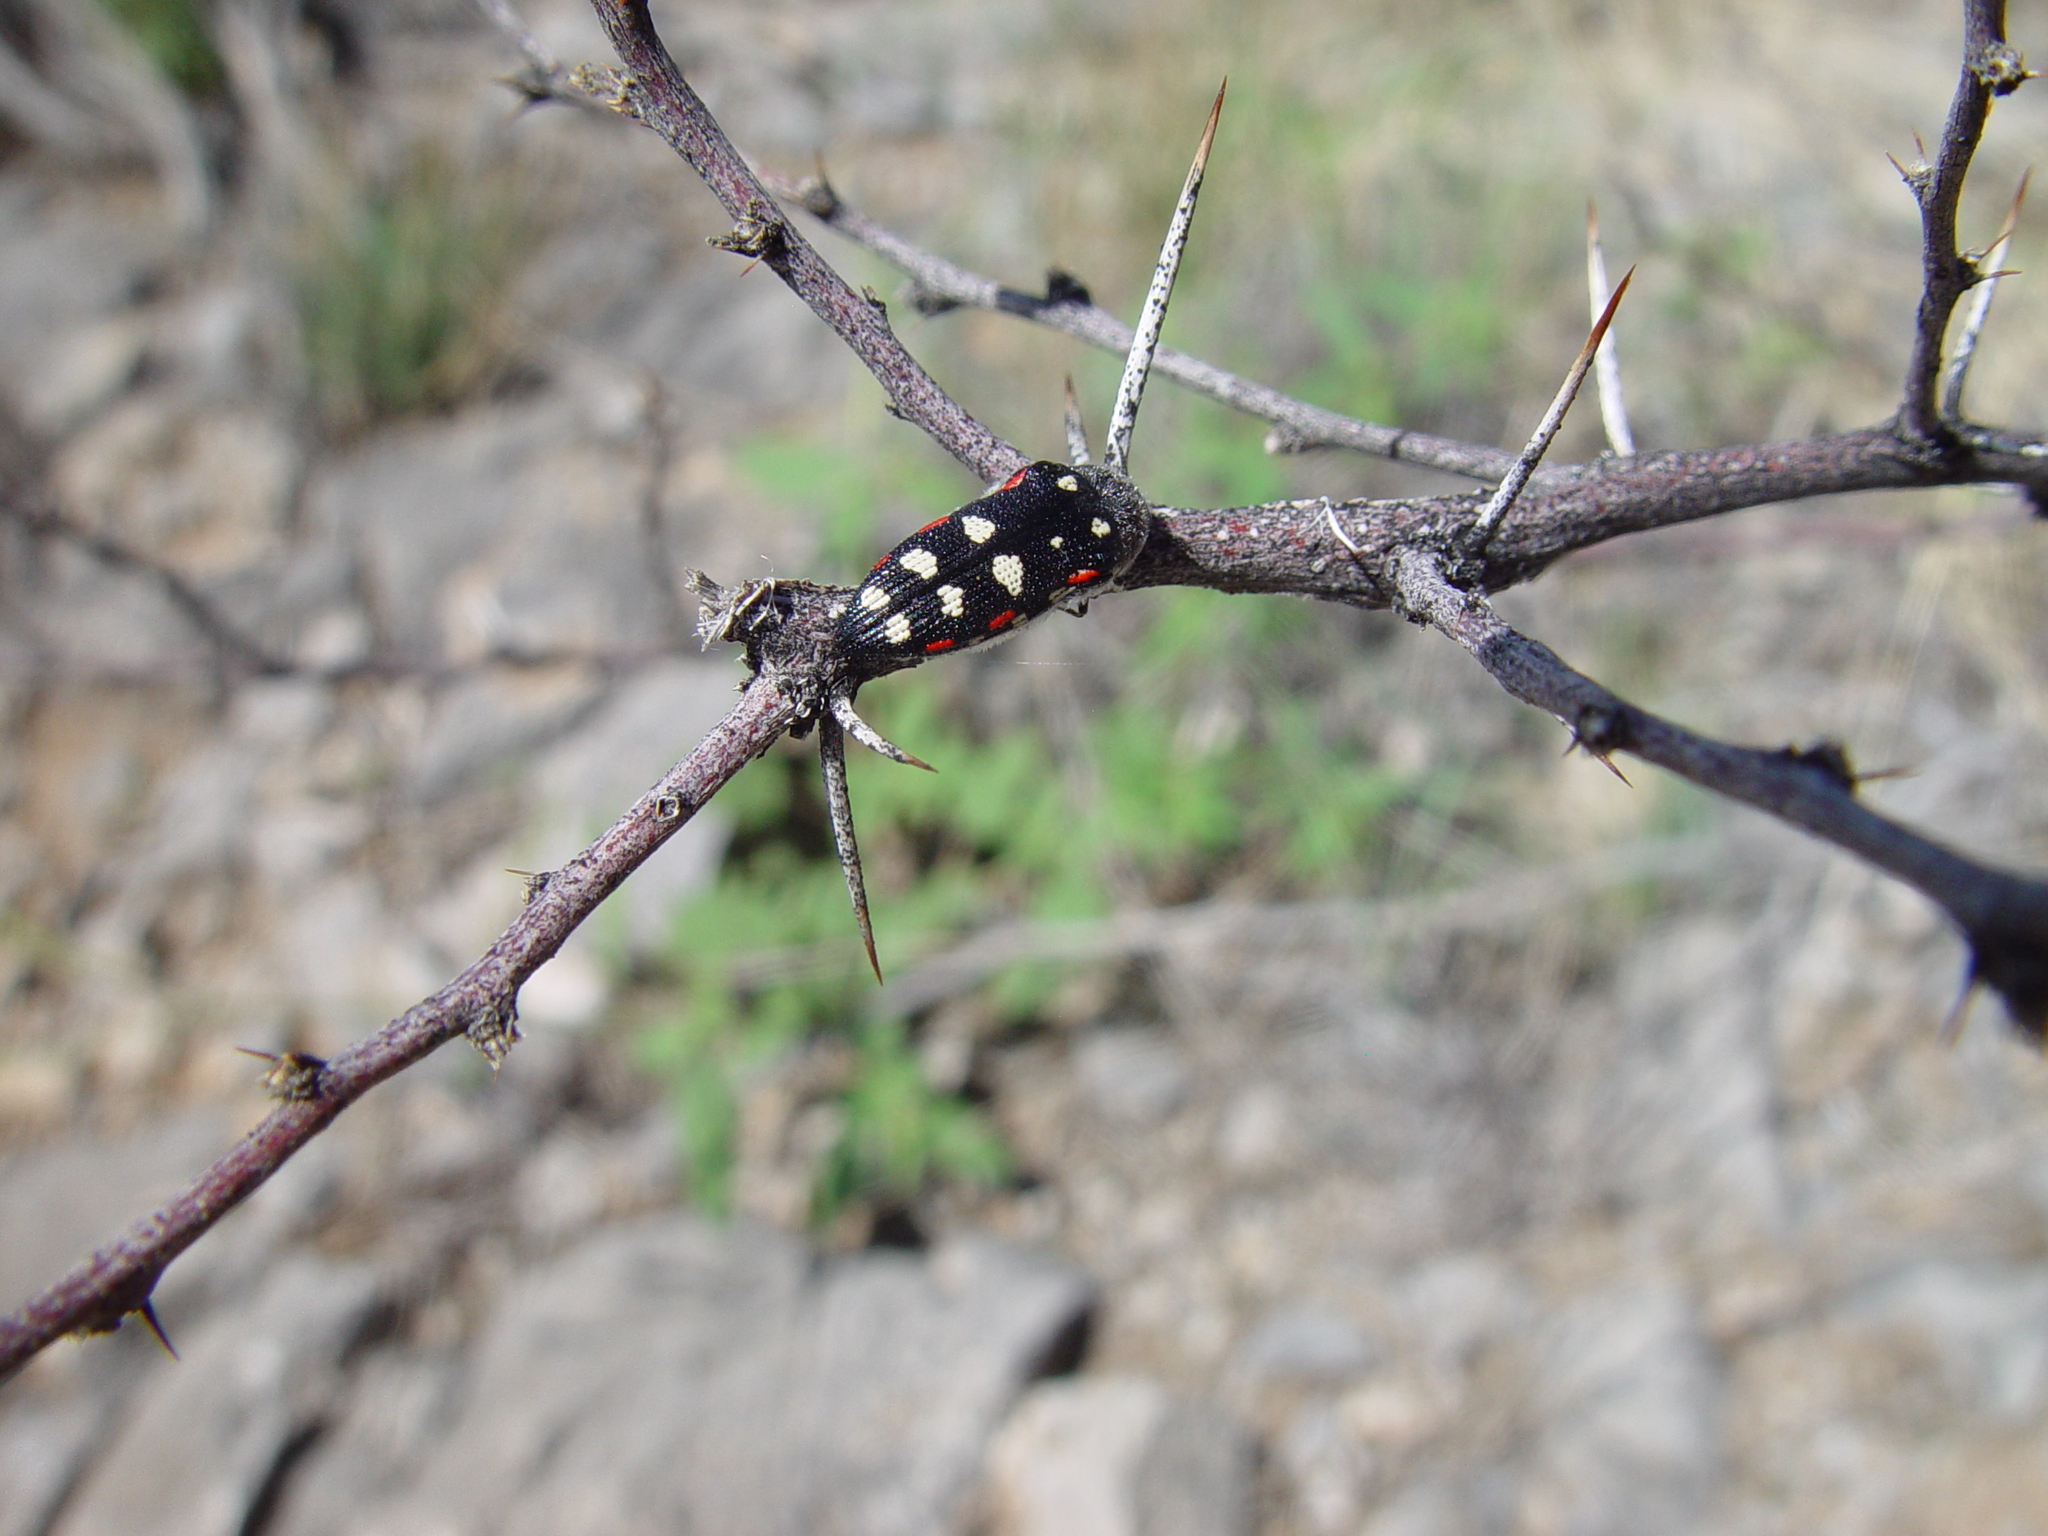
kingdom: Animalia
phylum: Arthropoda
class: Insecta
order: Coleoptera
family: Buprestidae
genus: Acmaeodera
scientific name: Acmaeodera gibbula
